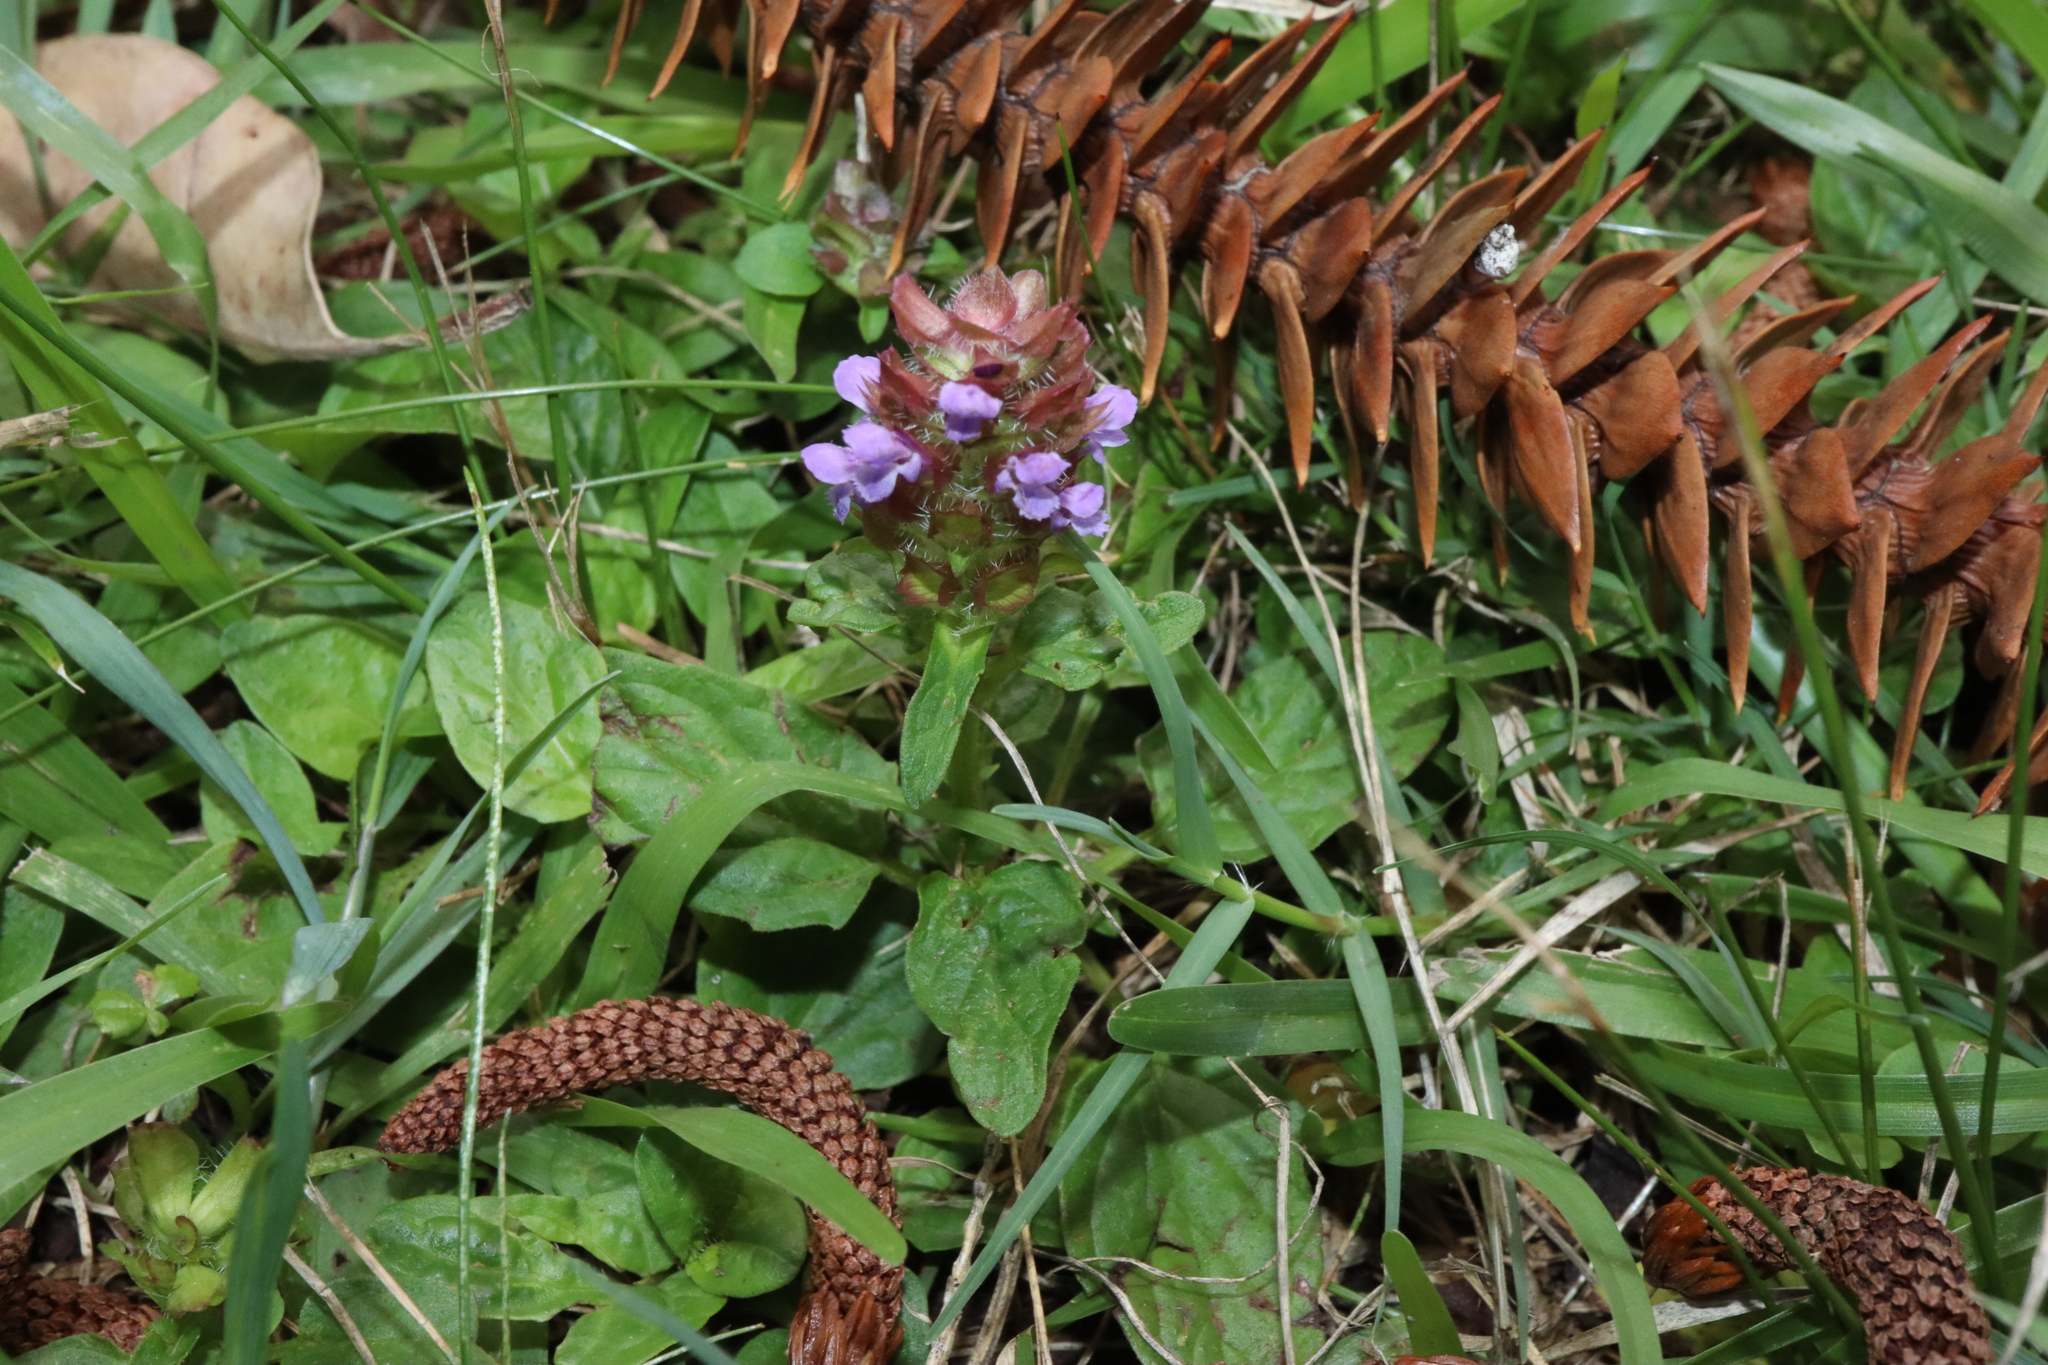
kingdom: Plantae
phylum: Tracheophyta
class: Magnoliopsida
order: Lamiales
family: Lamiaceae
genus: Prunella
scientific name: Prunella vulgaris
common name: Heal-all
